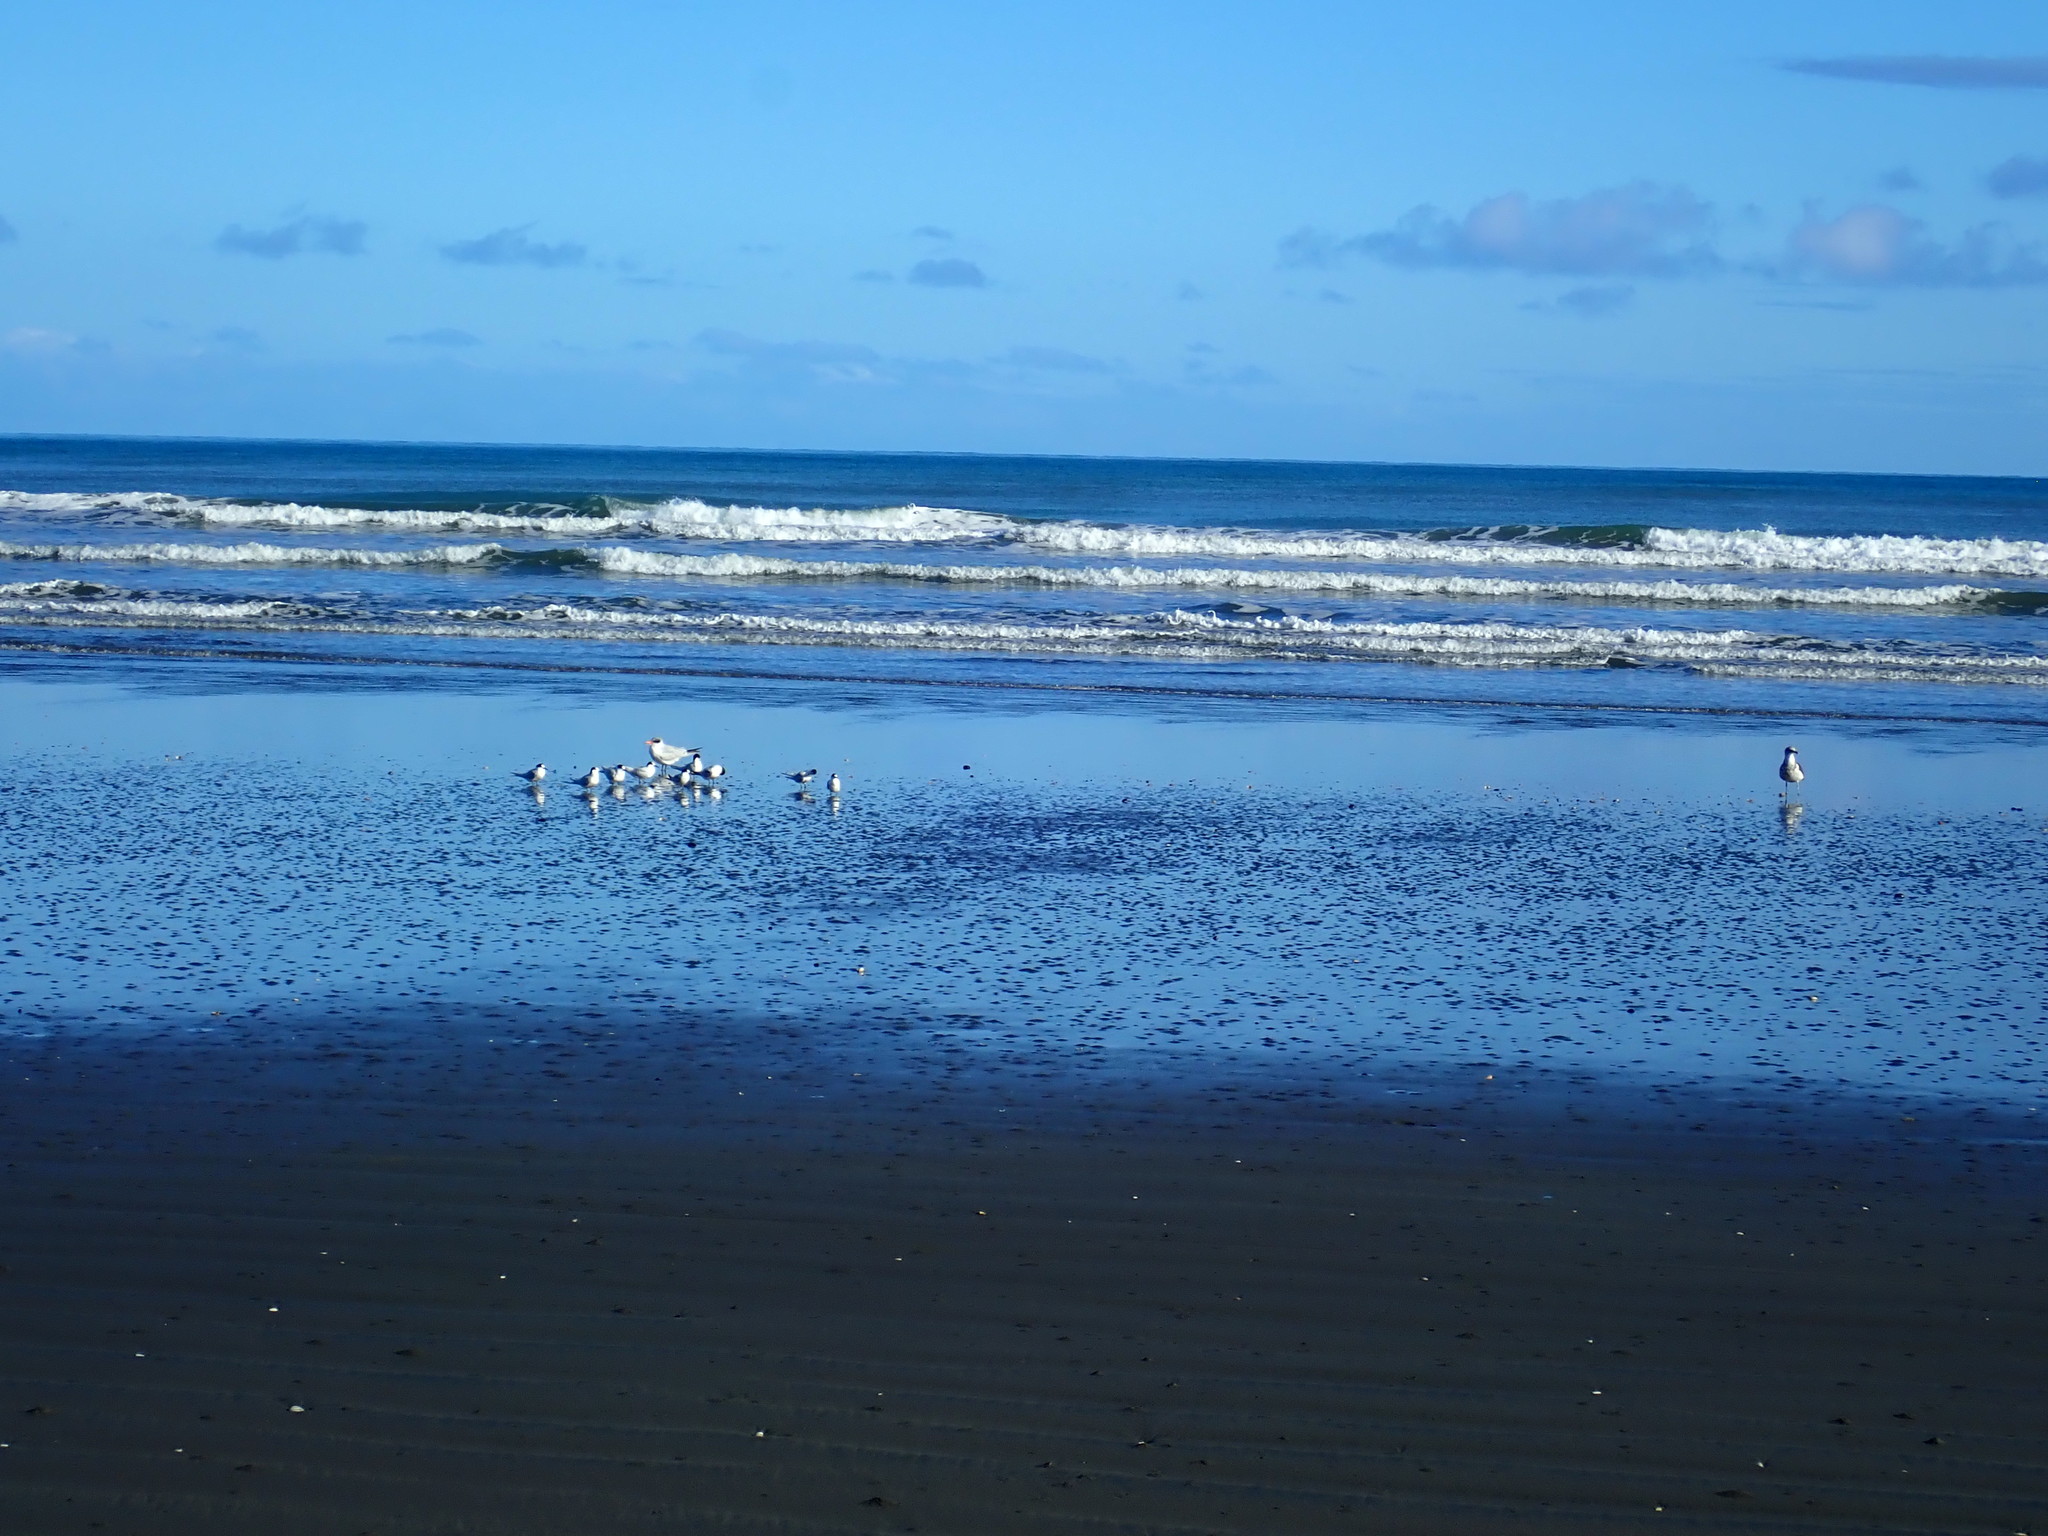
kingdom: Animalia
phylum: Chordata
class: Aves
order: Charadriiformes
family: Laridae
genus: Hydroprogne
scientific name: Hydroprogne caspia
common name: Caspian tern
